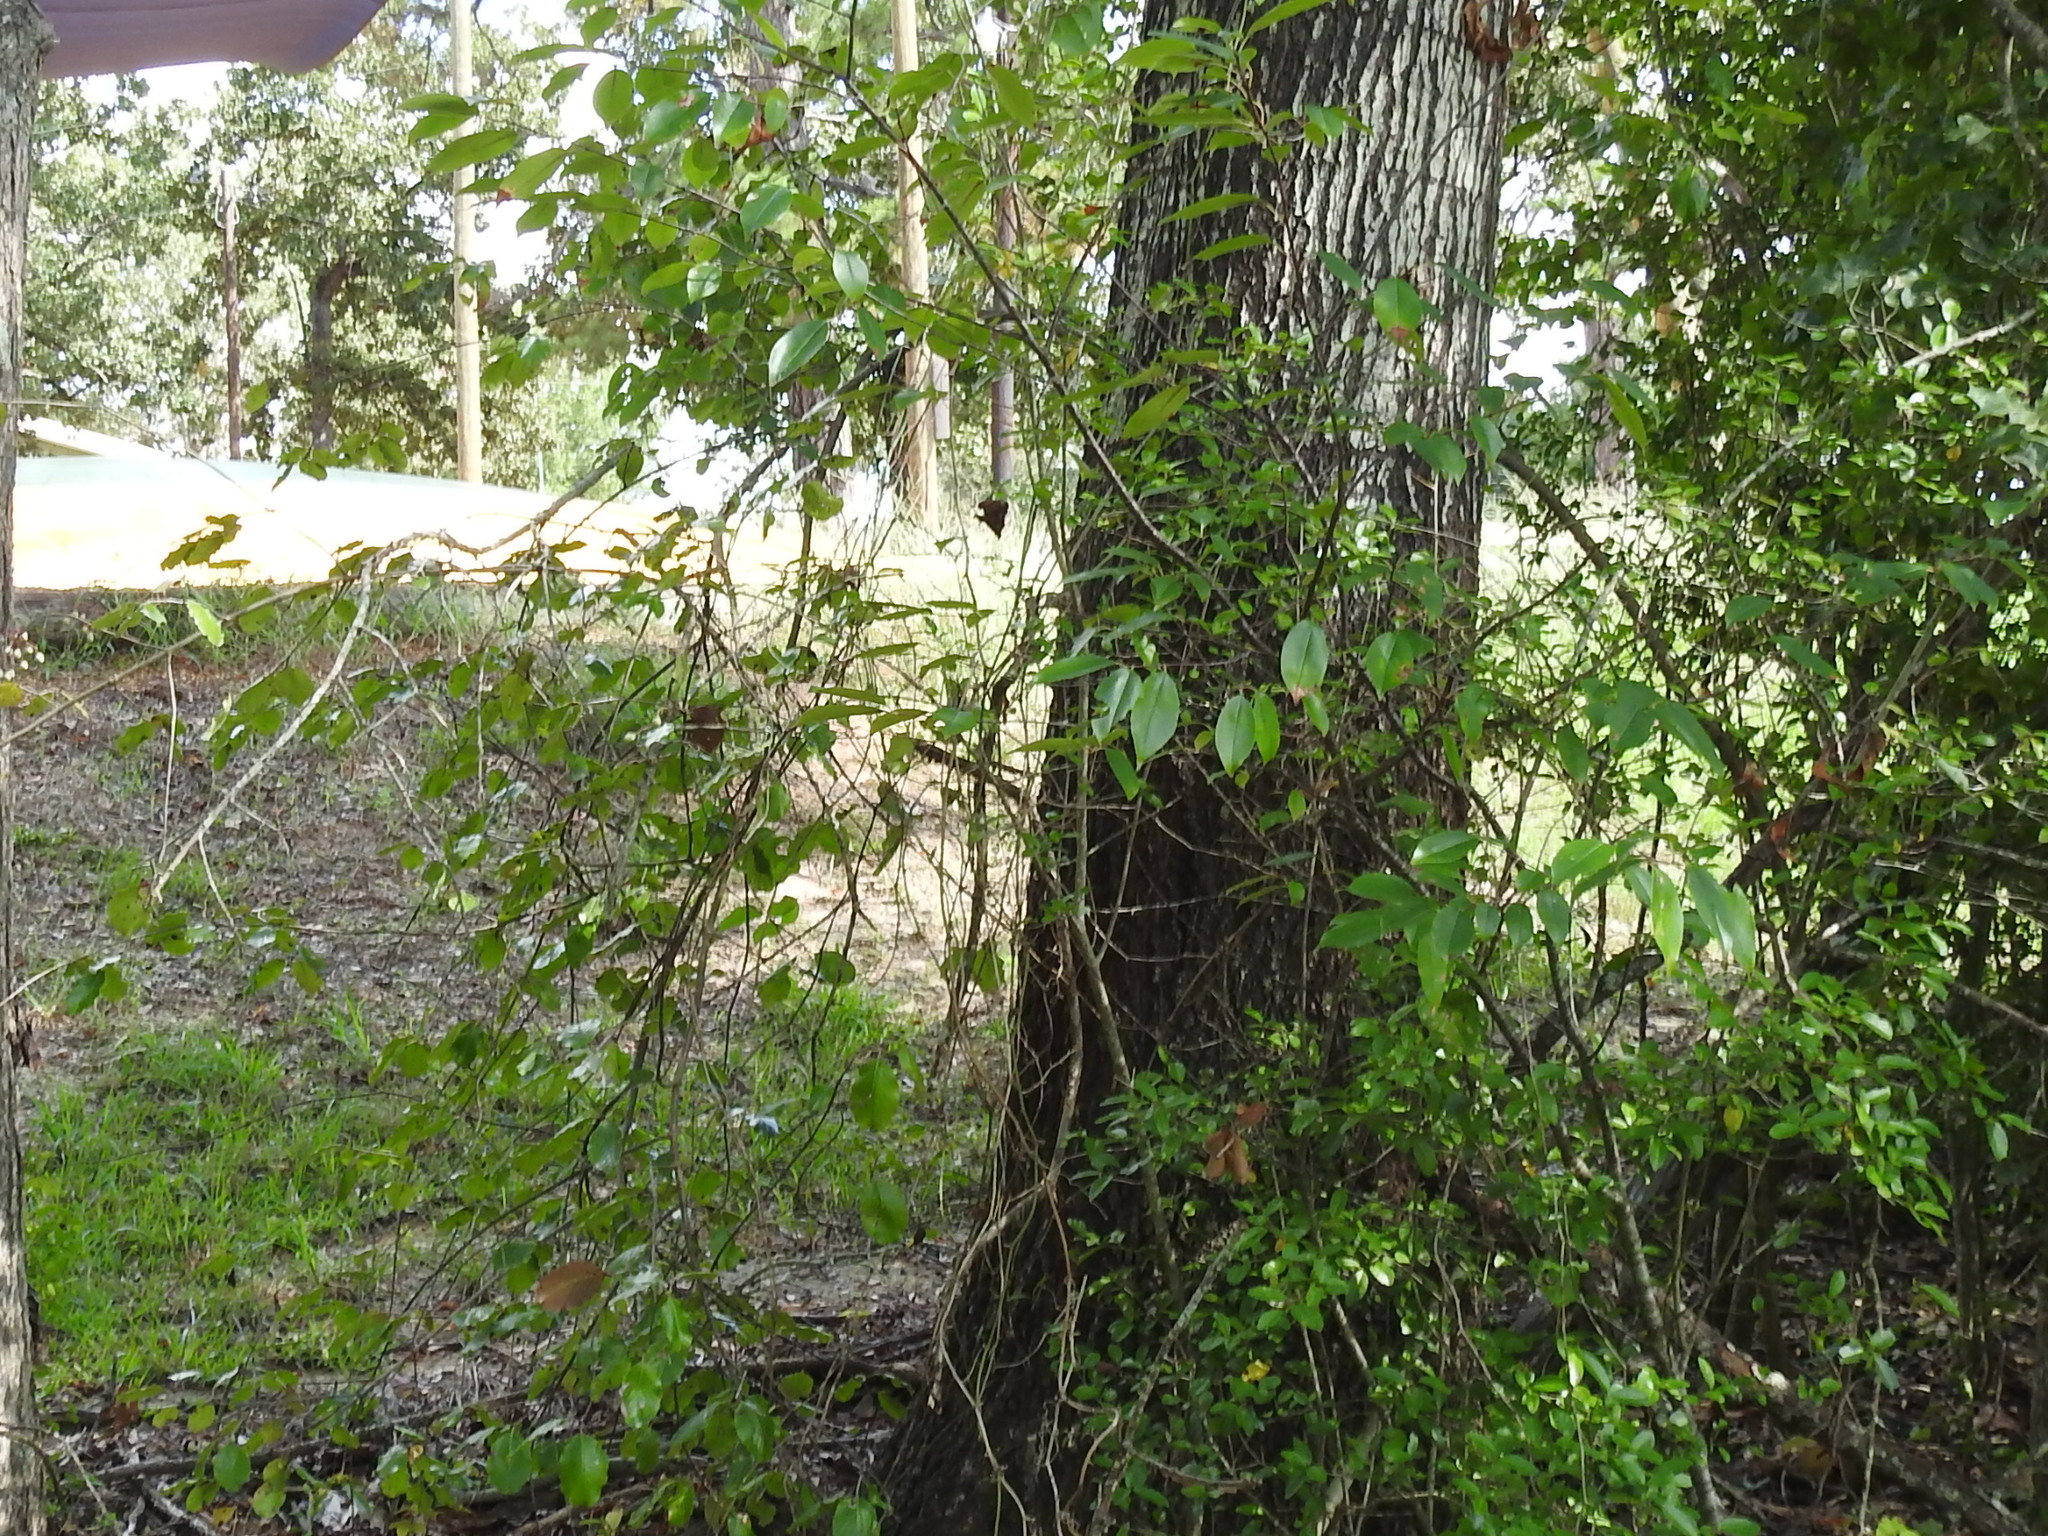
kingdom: Plantae
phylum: Tracheophyta
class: Magnoliopsida
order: Dipsacales
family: Viburnaceae
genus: Viburnum
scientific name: Viburnum rufidulum
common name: Blue haw
